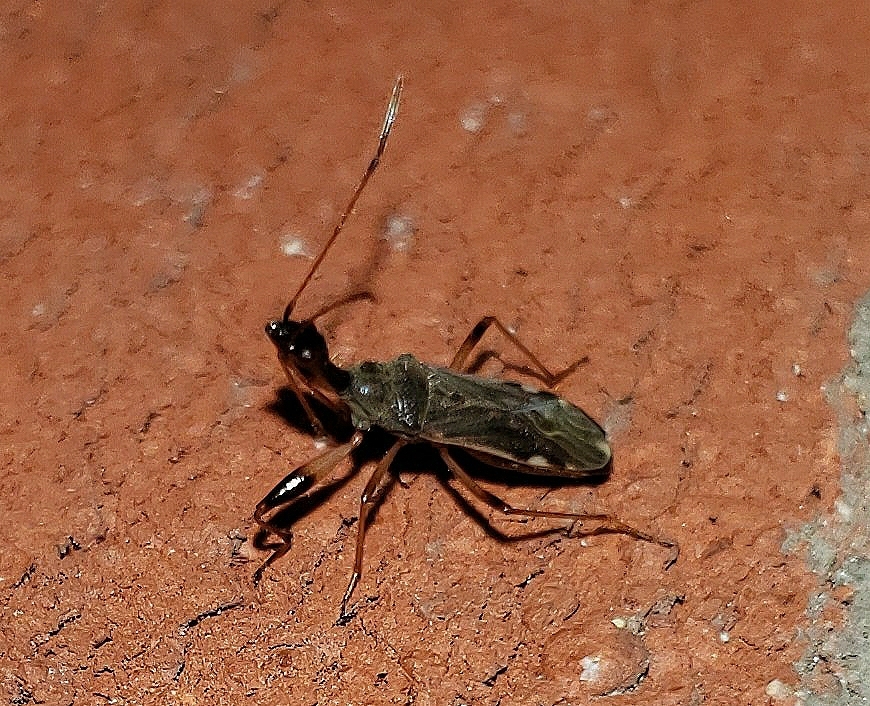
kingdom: Animalia
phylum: Arthropoda
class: Insecta
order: Hemiptera
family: Rhyparochromidae
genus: Myodocha
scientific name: Myodocha serripes
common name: Long-necked seed bug
